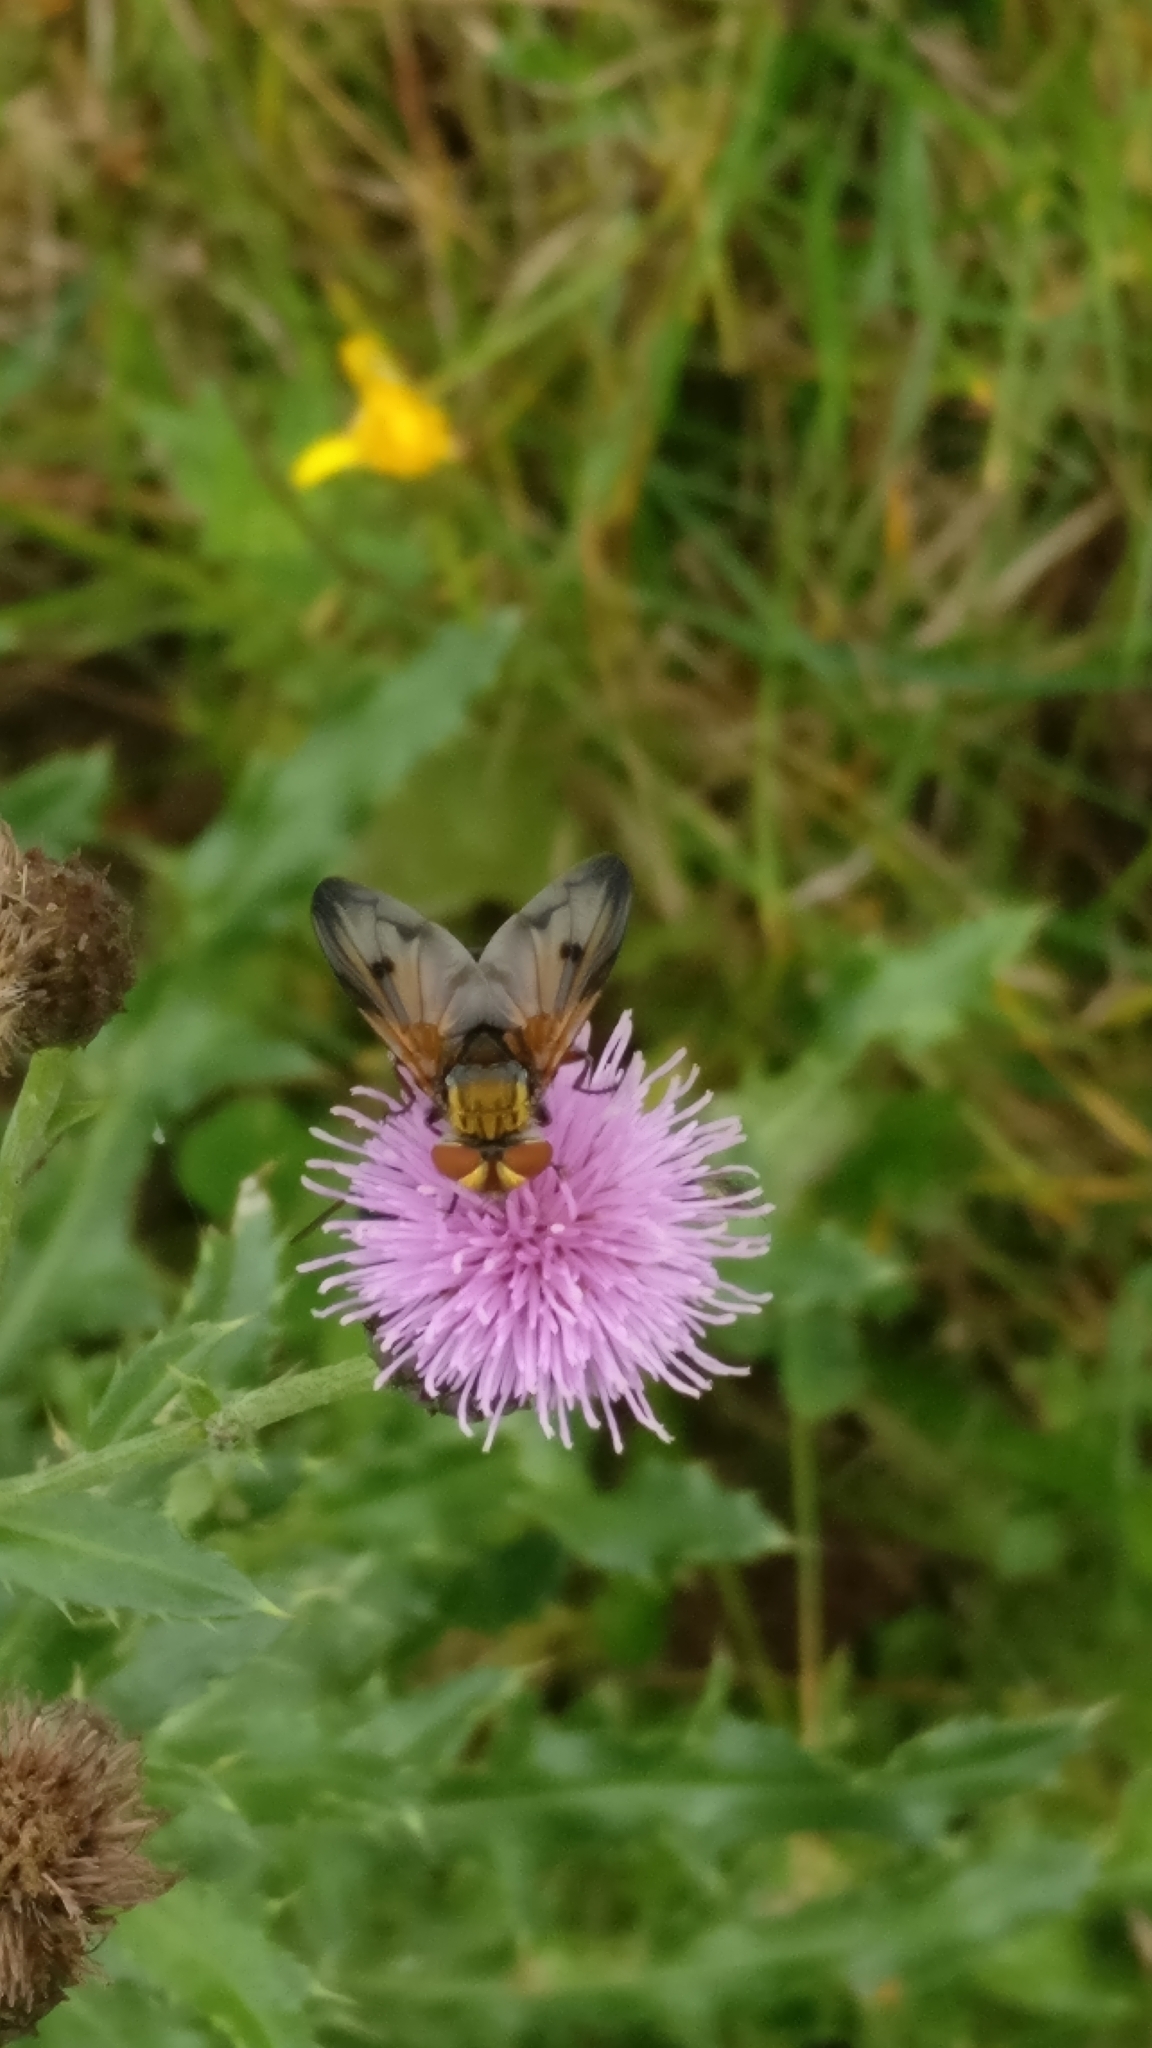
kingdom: Animalia
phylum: Arthropoda
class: Insecta
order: Diptera
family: Tachinidae
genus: Ectophasia
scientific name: Ectophasia crassipennis
